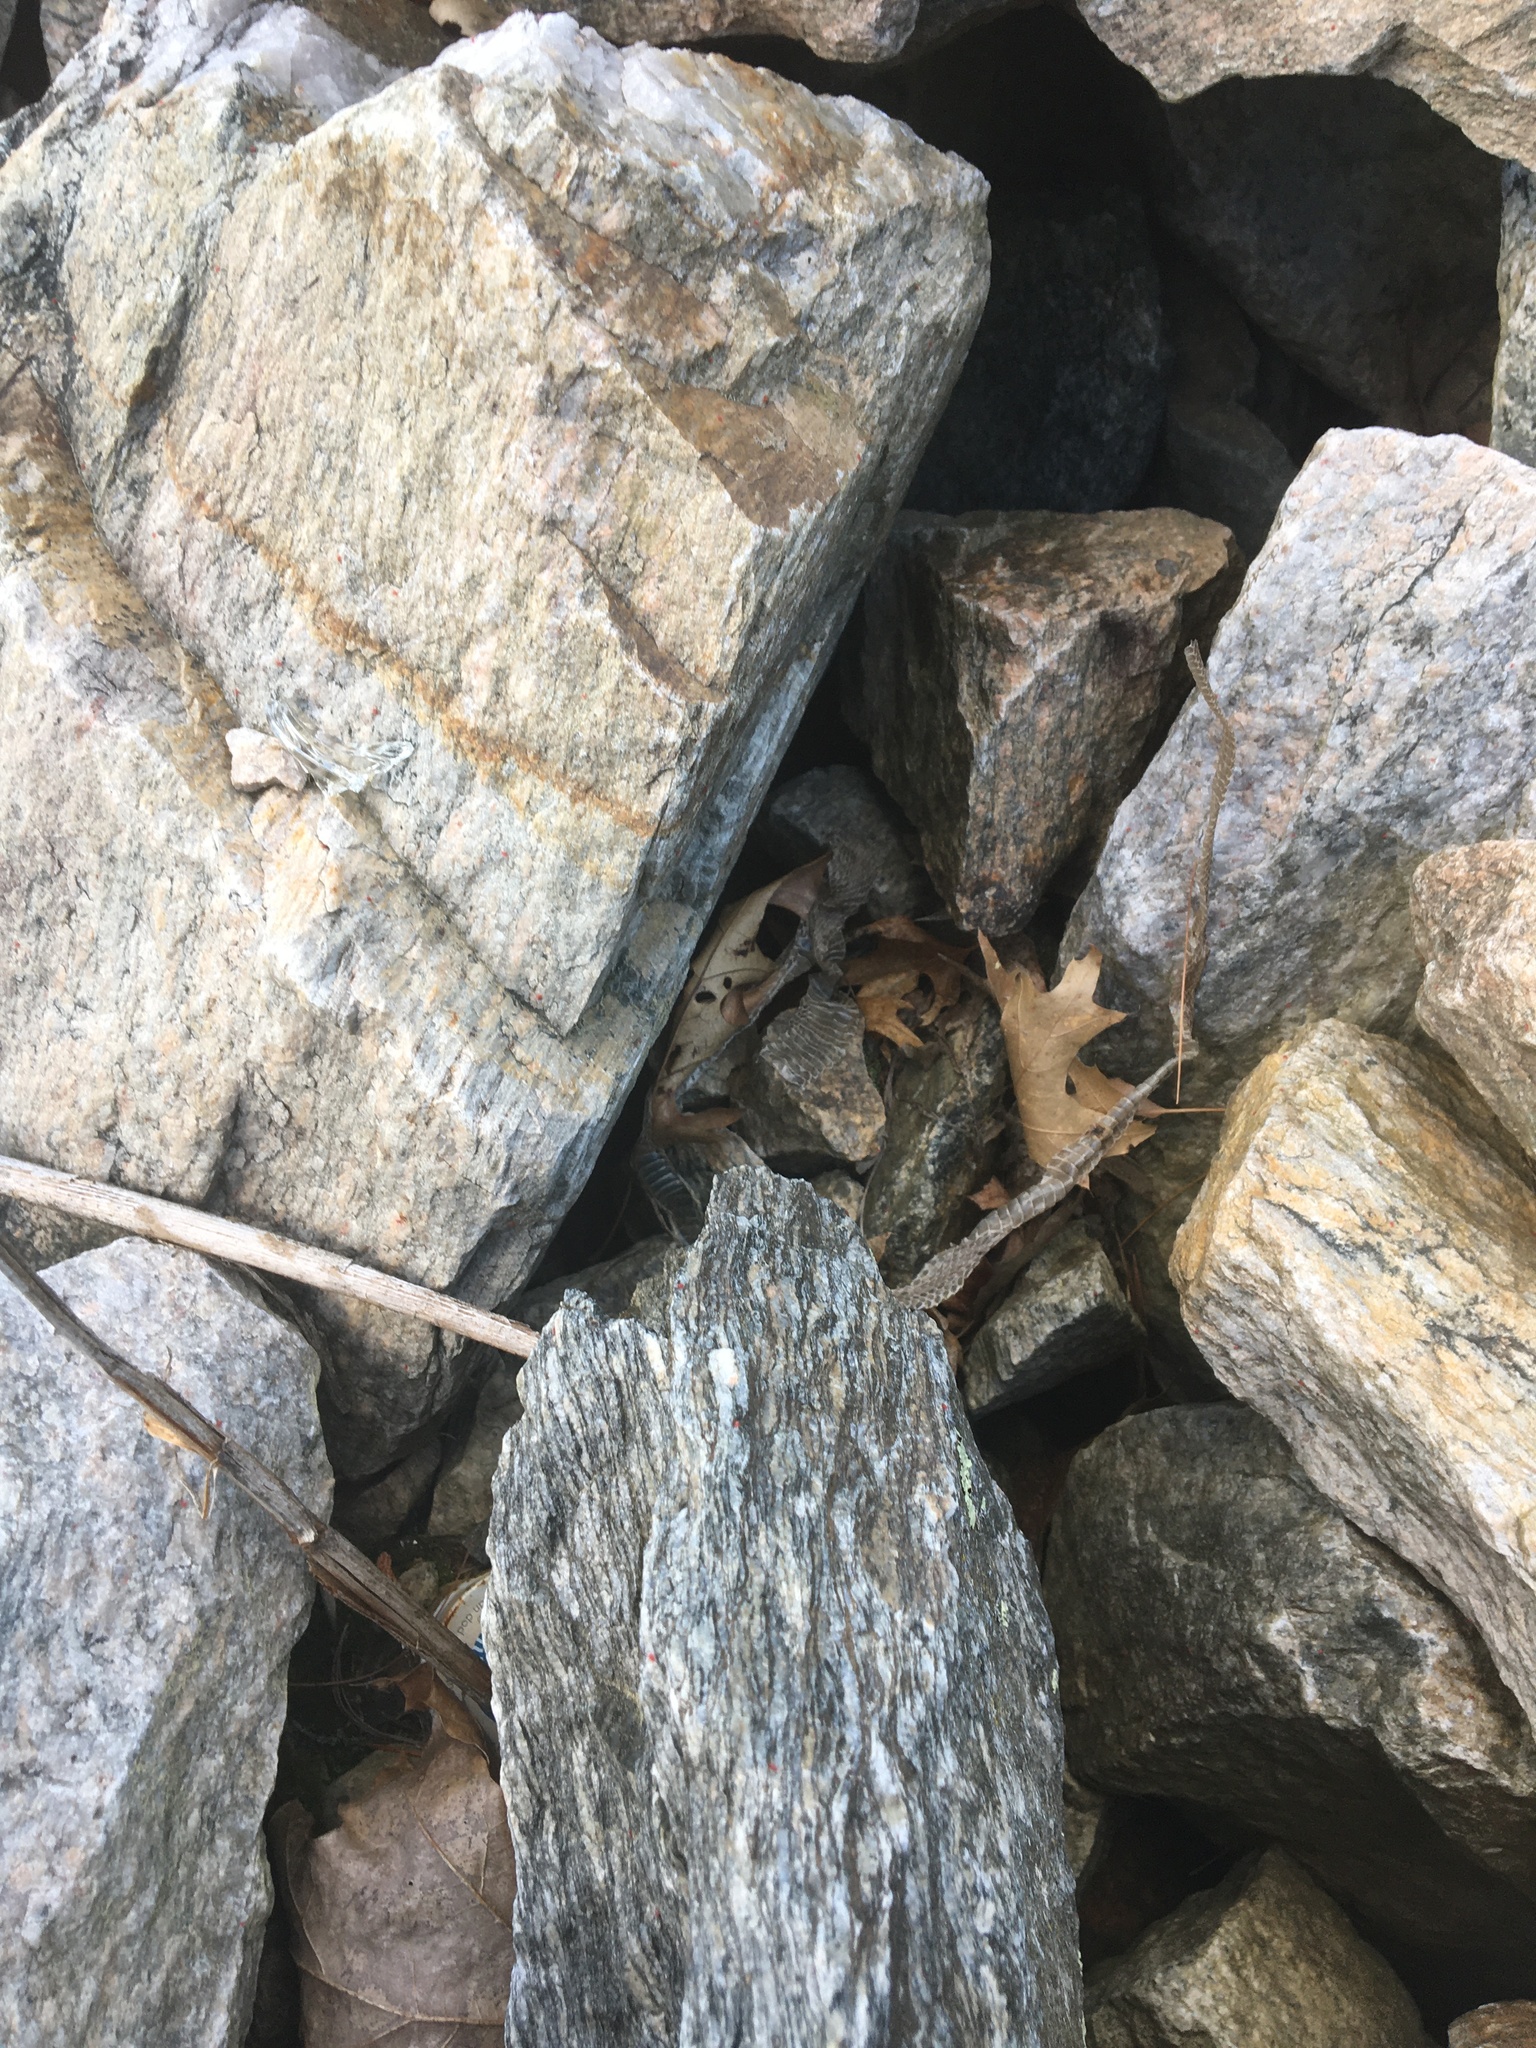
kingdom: Animalia
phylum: Chordata
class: Squamata
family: Colubridae
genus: Thamnophis
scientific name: Thamnophis sirtalis
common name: Common garter snake
